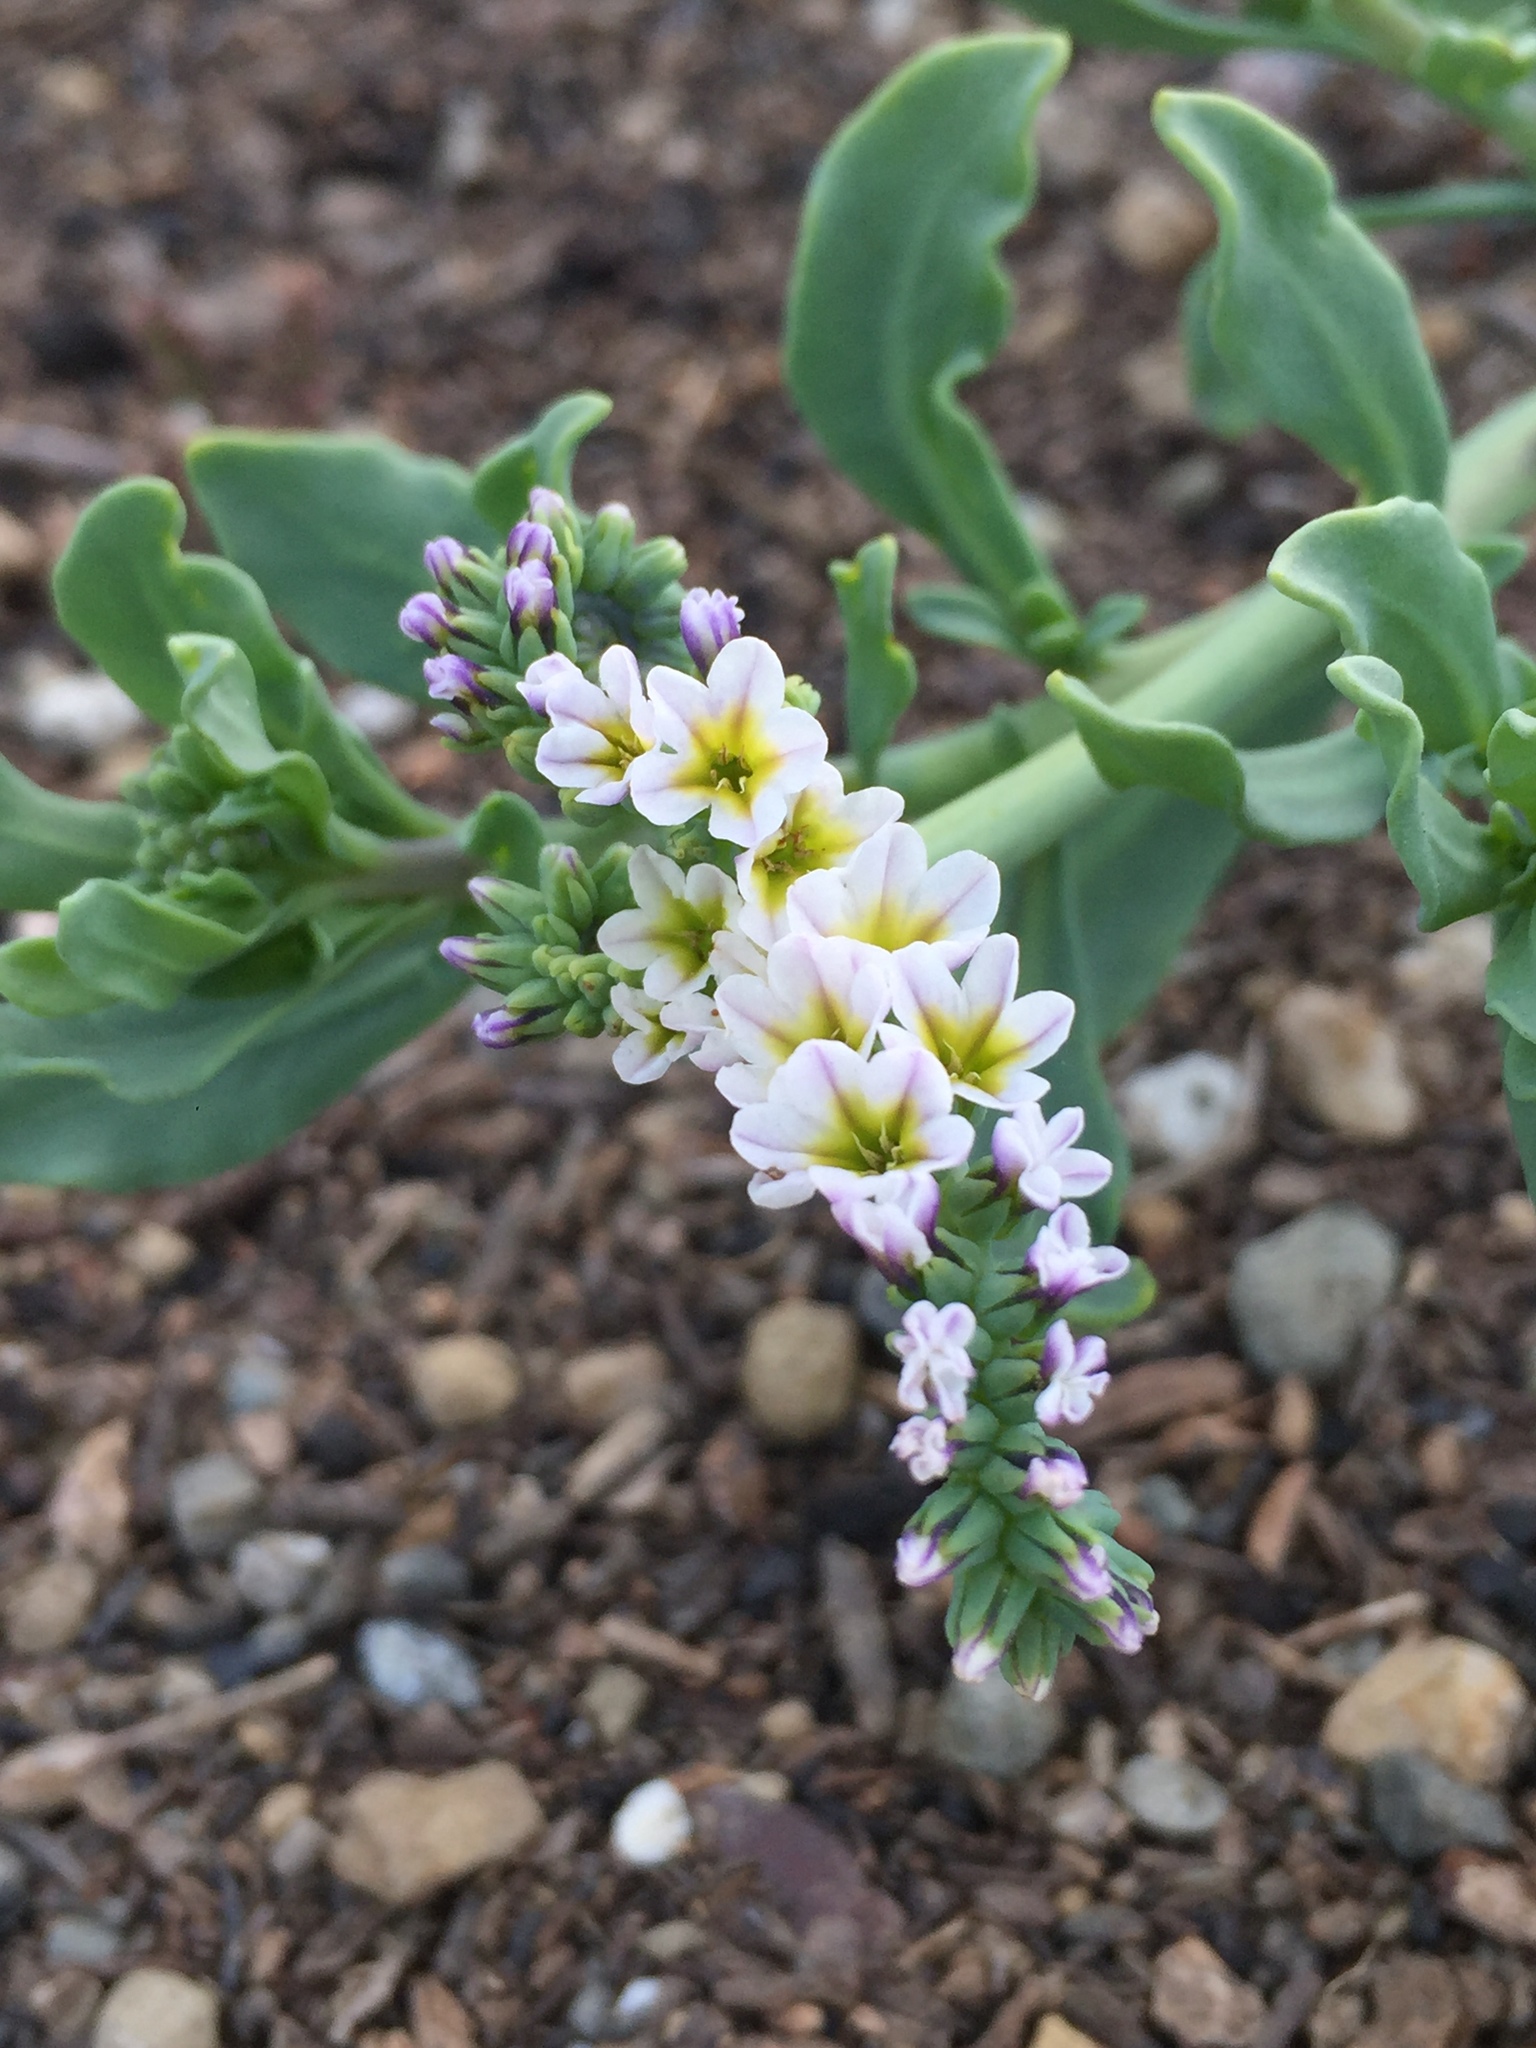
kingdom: Plantae
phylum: Tracheophyta
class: Magnoliopsida
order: Boraginales
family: Heliotropiaceae
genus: Heliotropium
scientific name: Heliotropium curassavicum
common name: Seaside heliotrope
